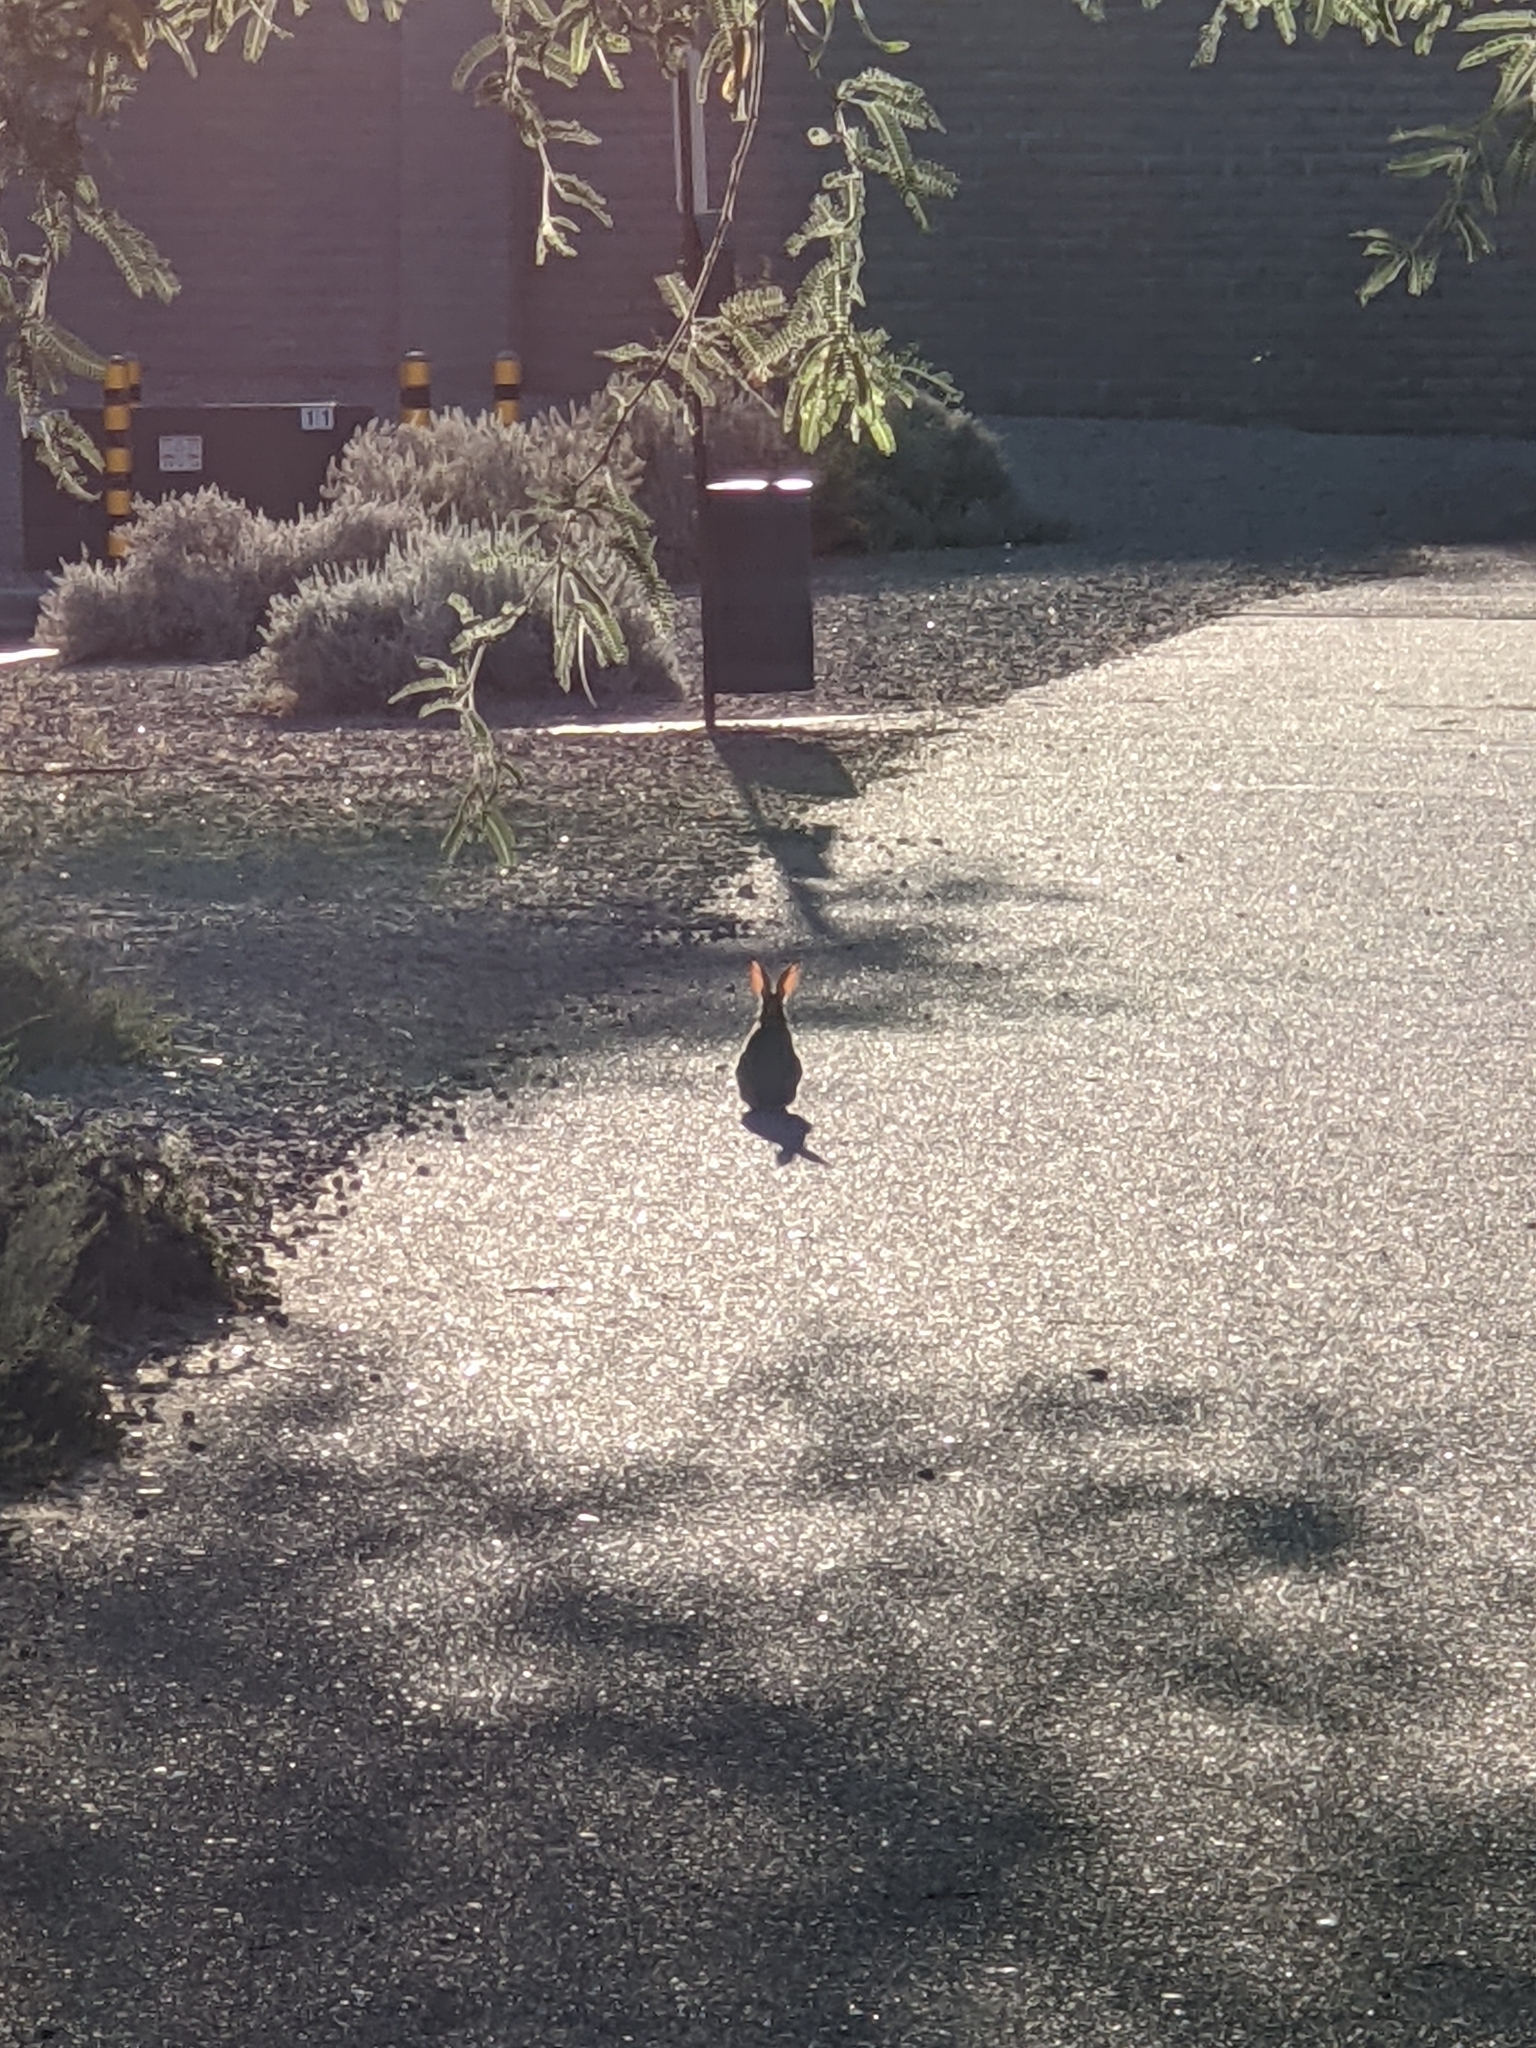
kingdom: Animalia
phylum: Chordata
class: Mammalia
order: Lagomorpha
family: Leporidae
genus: Sylvilagus
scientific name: Sylvilagus audubonii
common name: Desert cottontail
